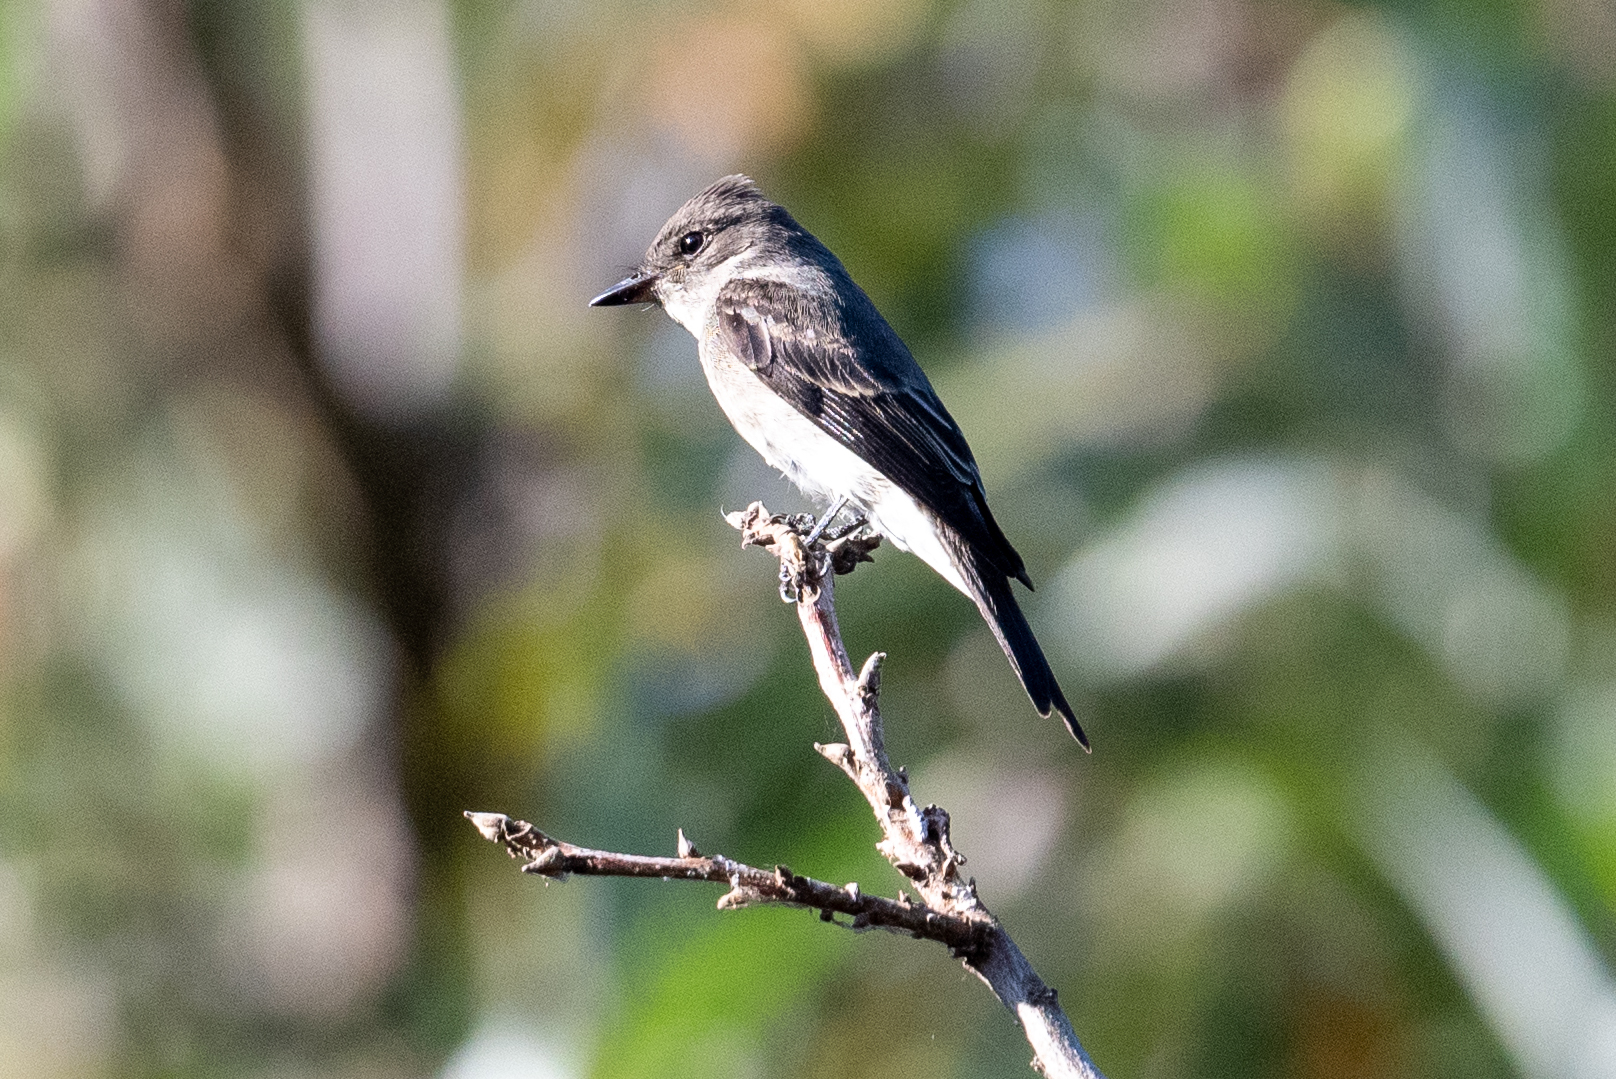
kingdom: Animalia
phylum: Chordata
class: Aves
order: Passeriformes
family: Tyrannidae
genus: Contopus
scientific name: Contopus sordidulus
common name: Western wood-pewee
